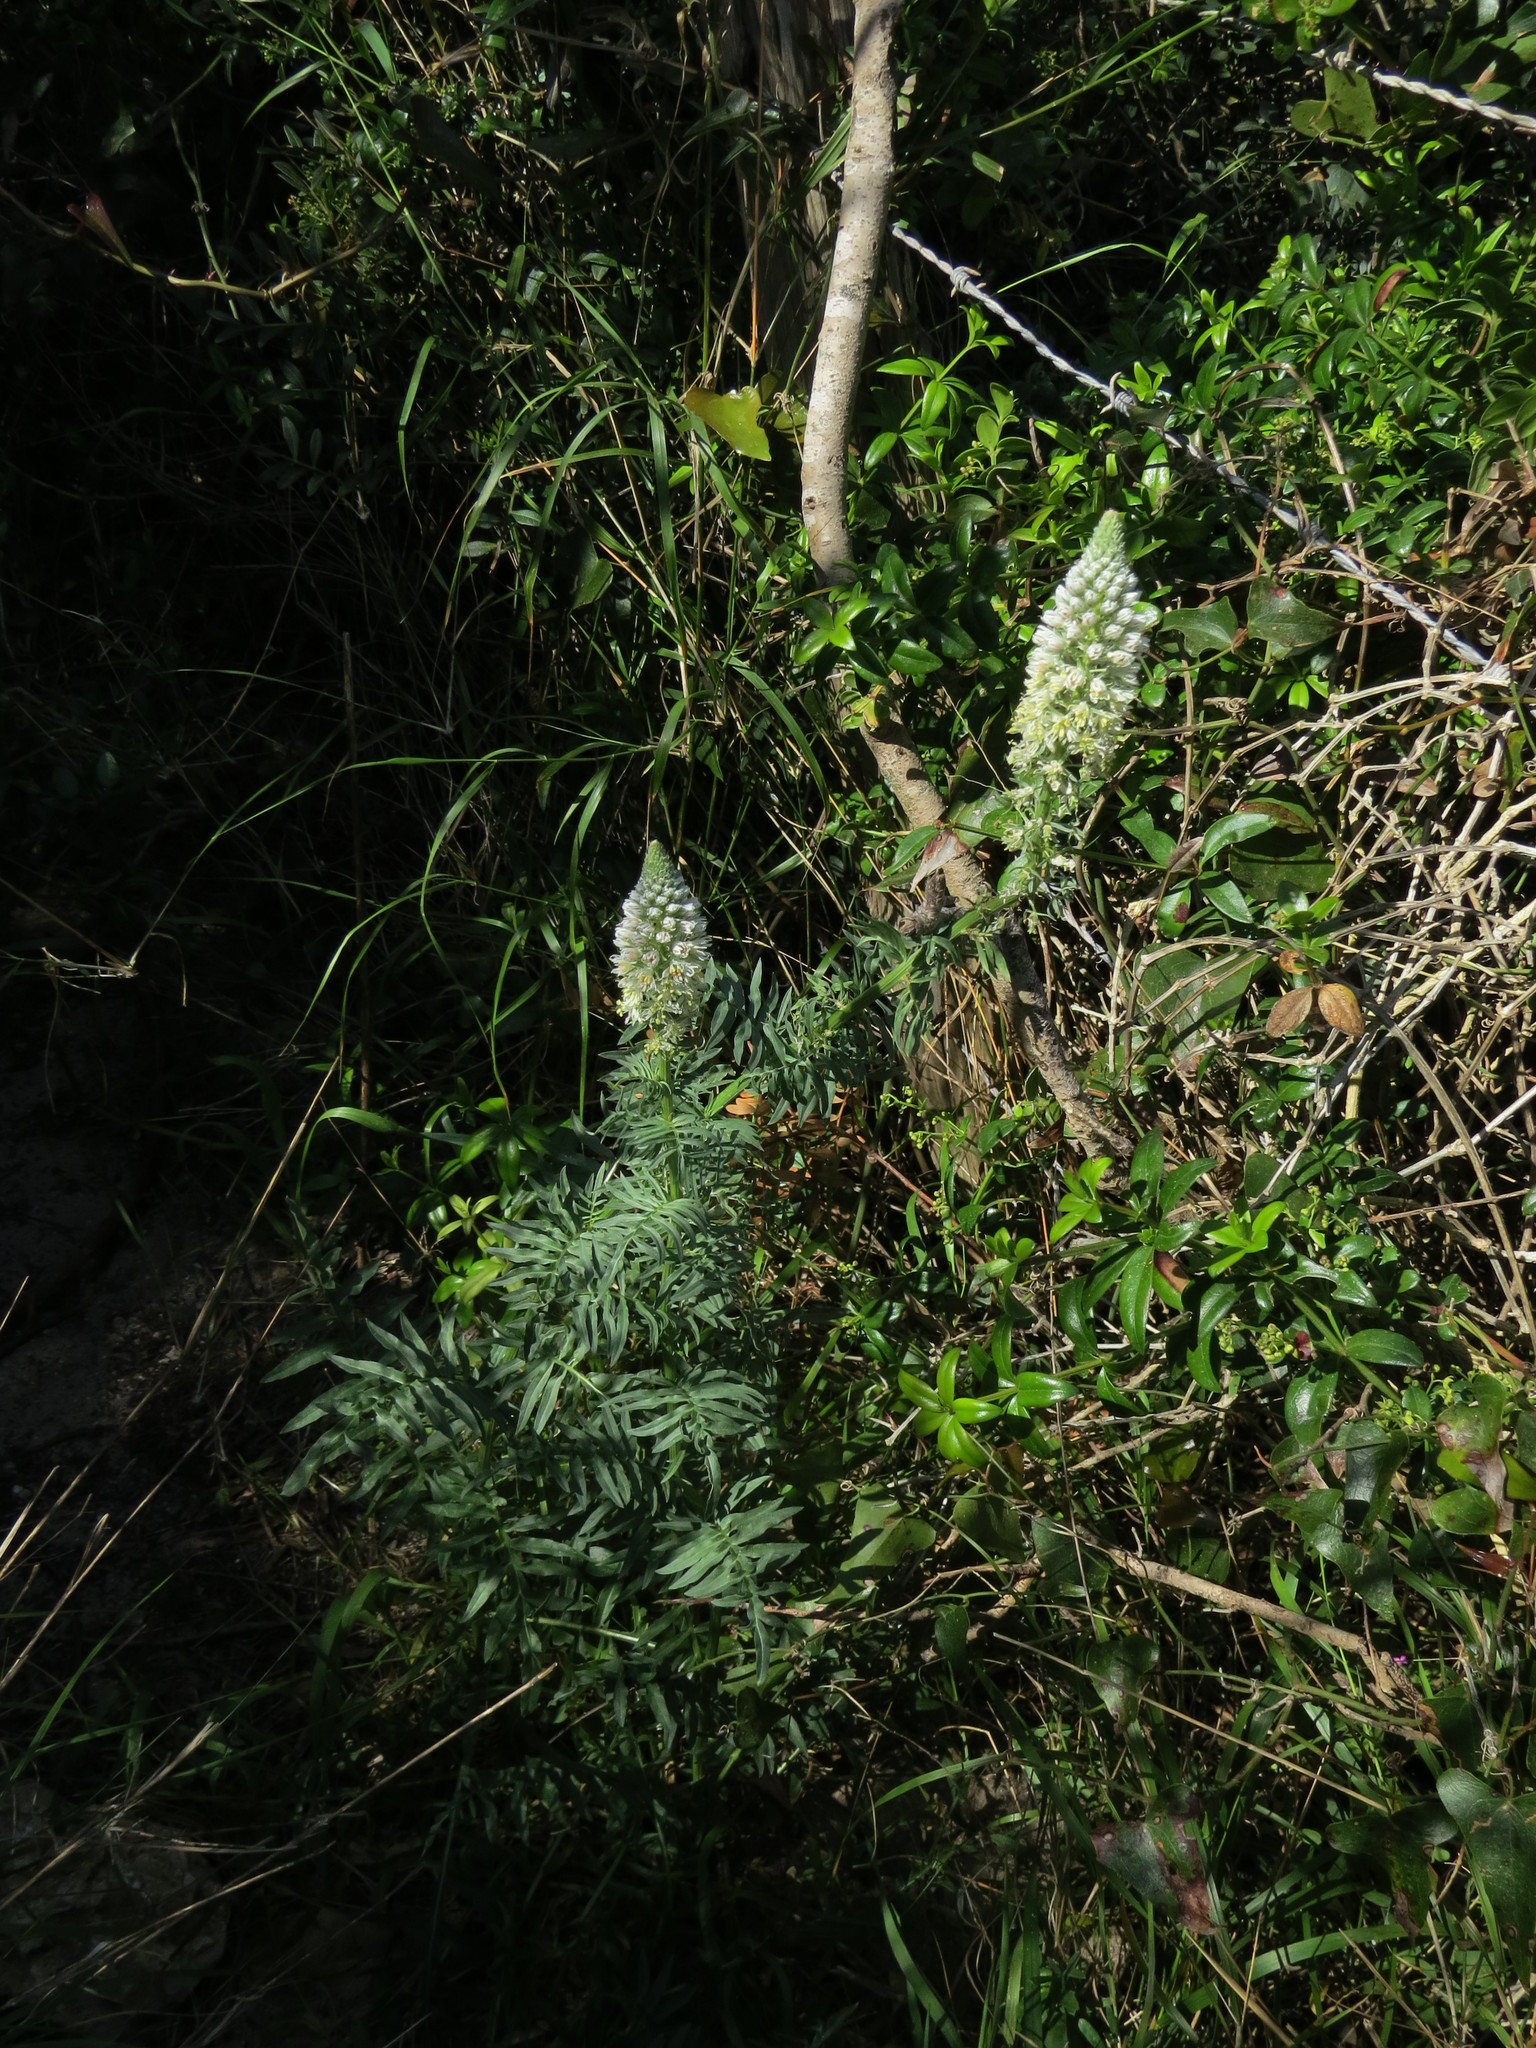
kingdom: Plantae
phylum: Tracheophyta
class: Magnoliopsida
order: Brassicales
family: Resedaceae
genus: Reseda
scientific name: Reseda alba
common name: White mignonette
